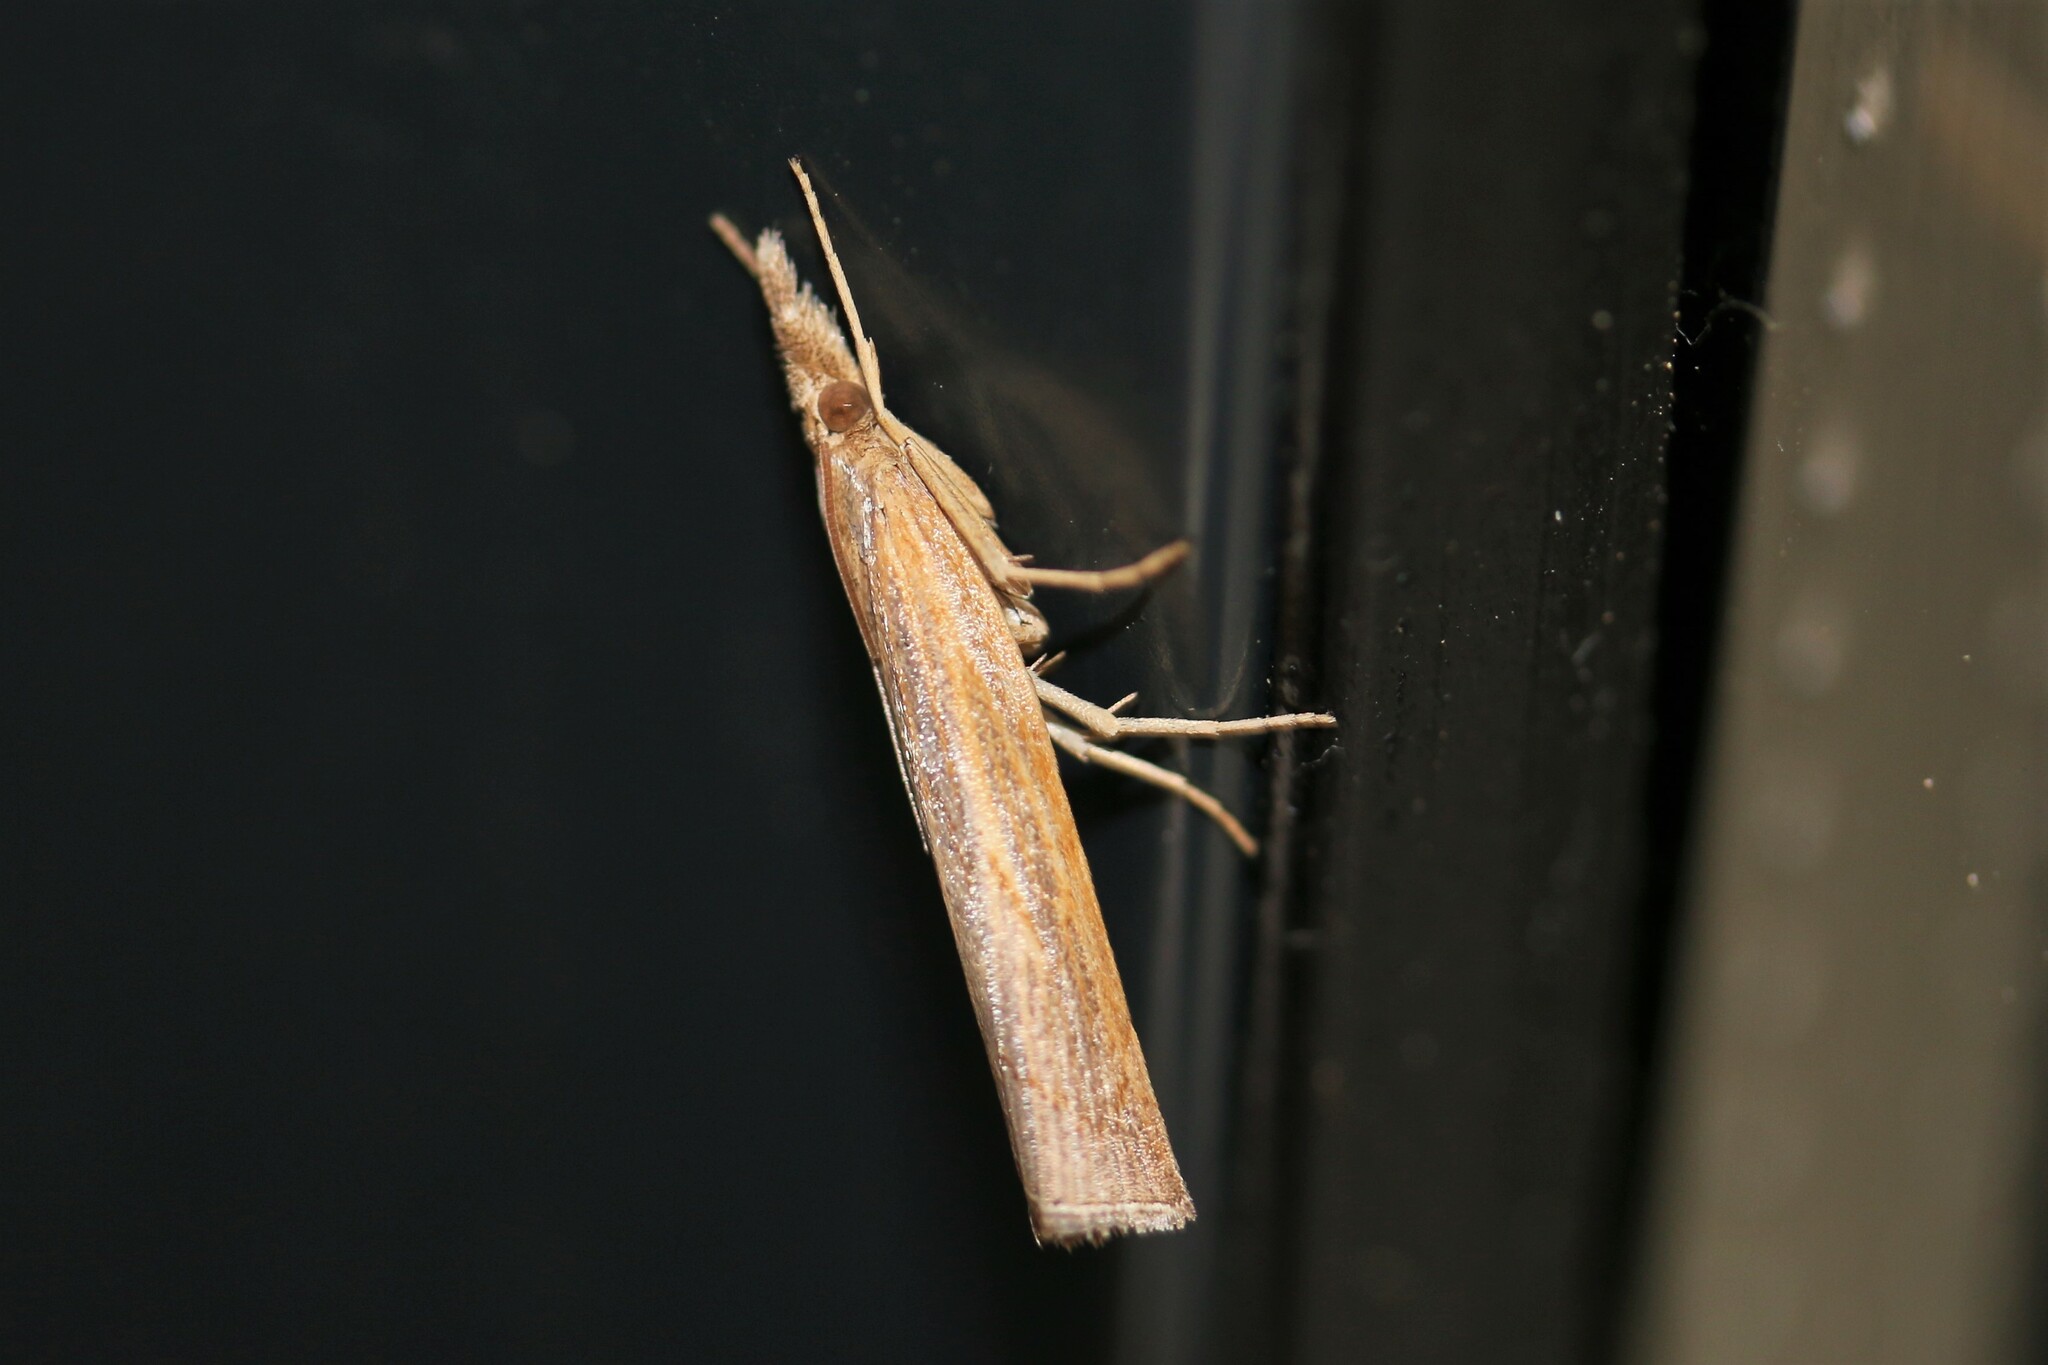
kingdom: Animalia
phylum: Arthropoda
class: Insecta
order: Lepidoptera
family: Crambidae
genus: Pediasia
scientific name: Pediasia contaminella
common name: Waste grass-veneer
